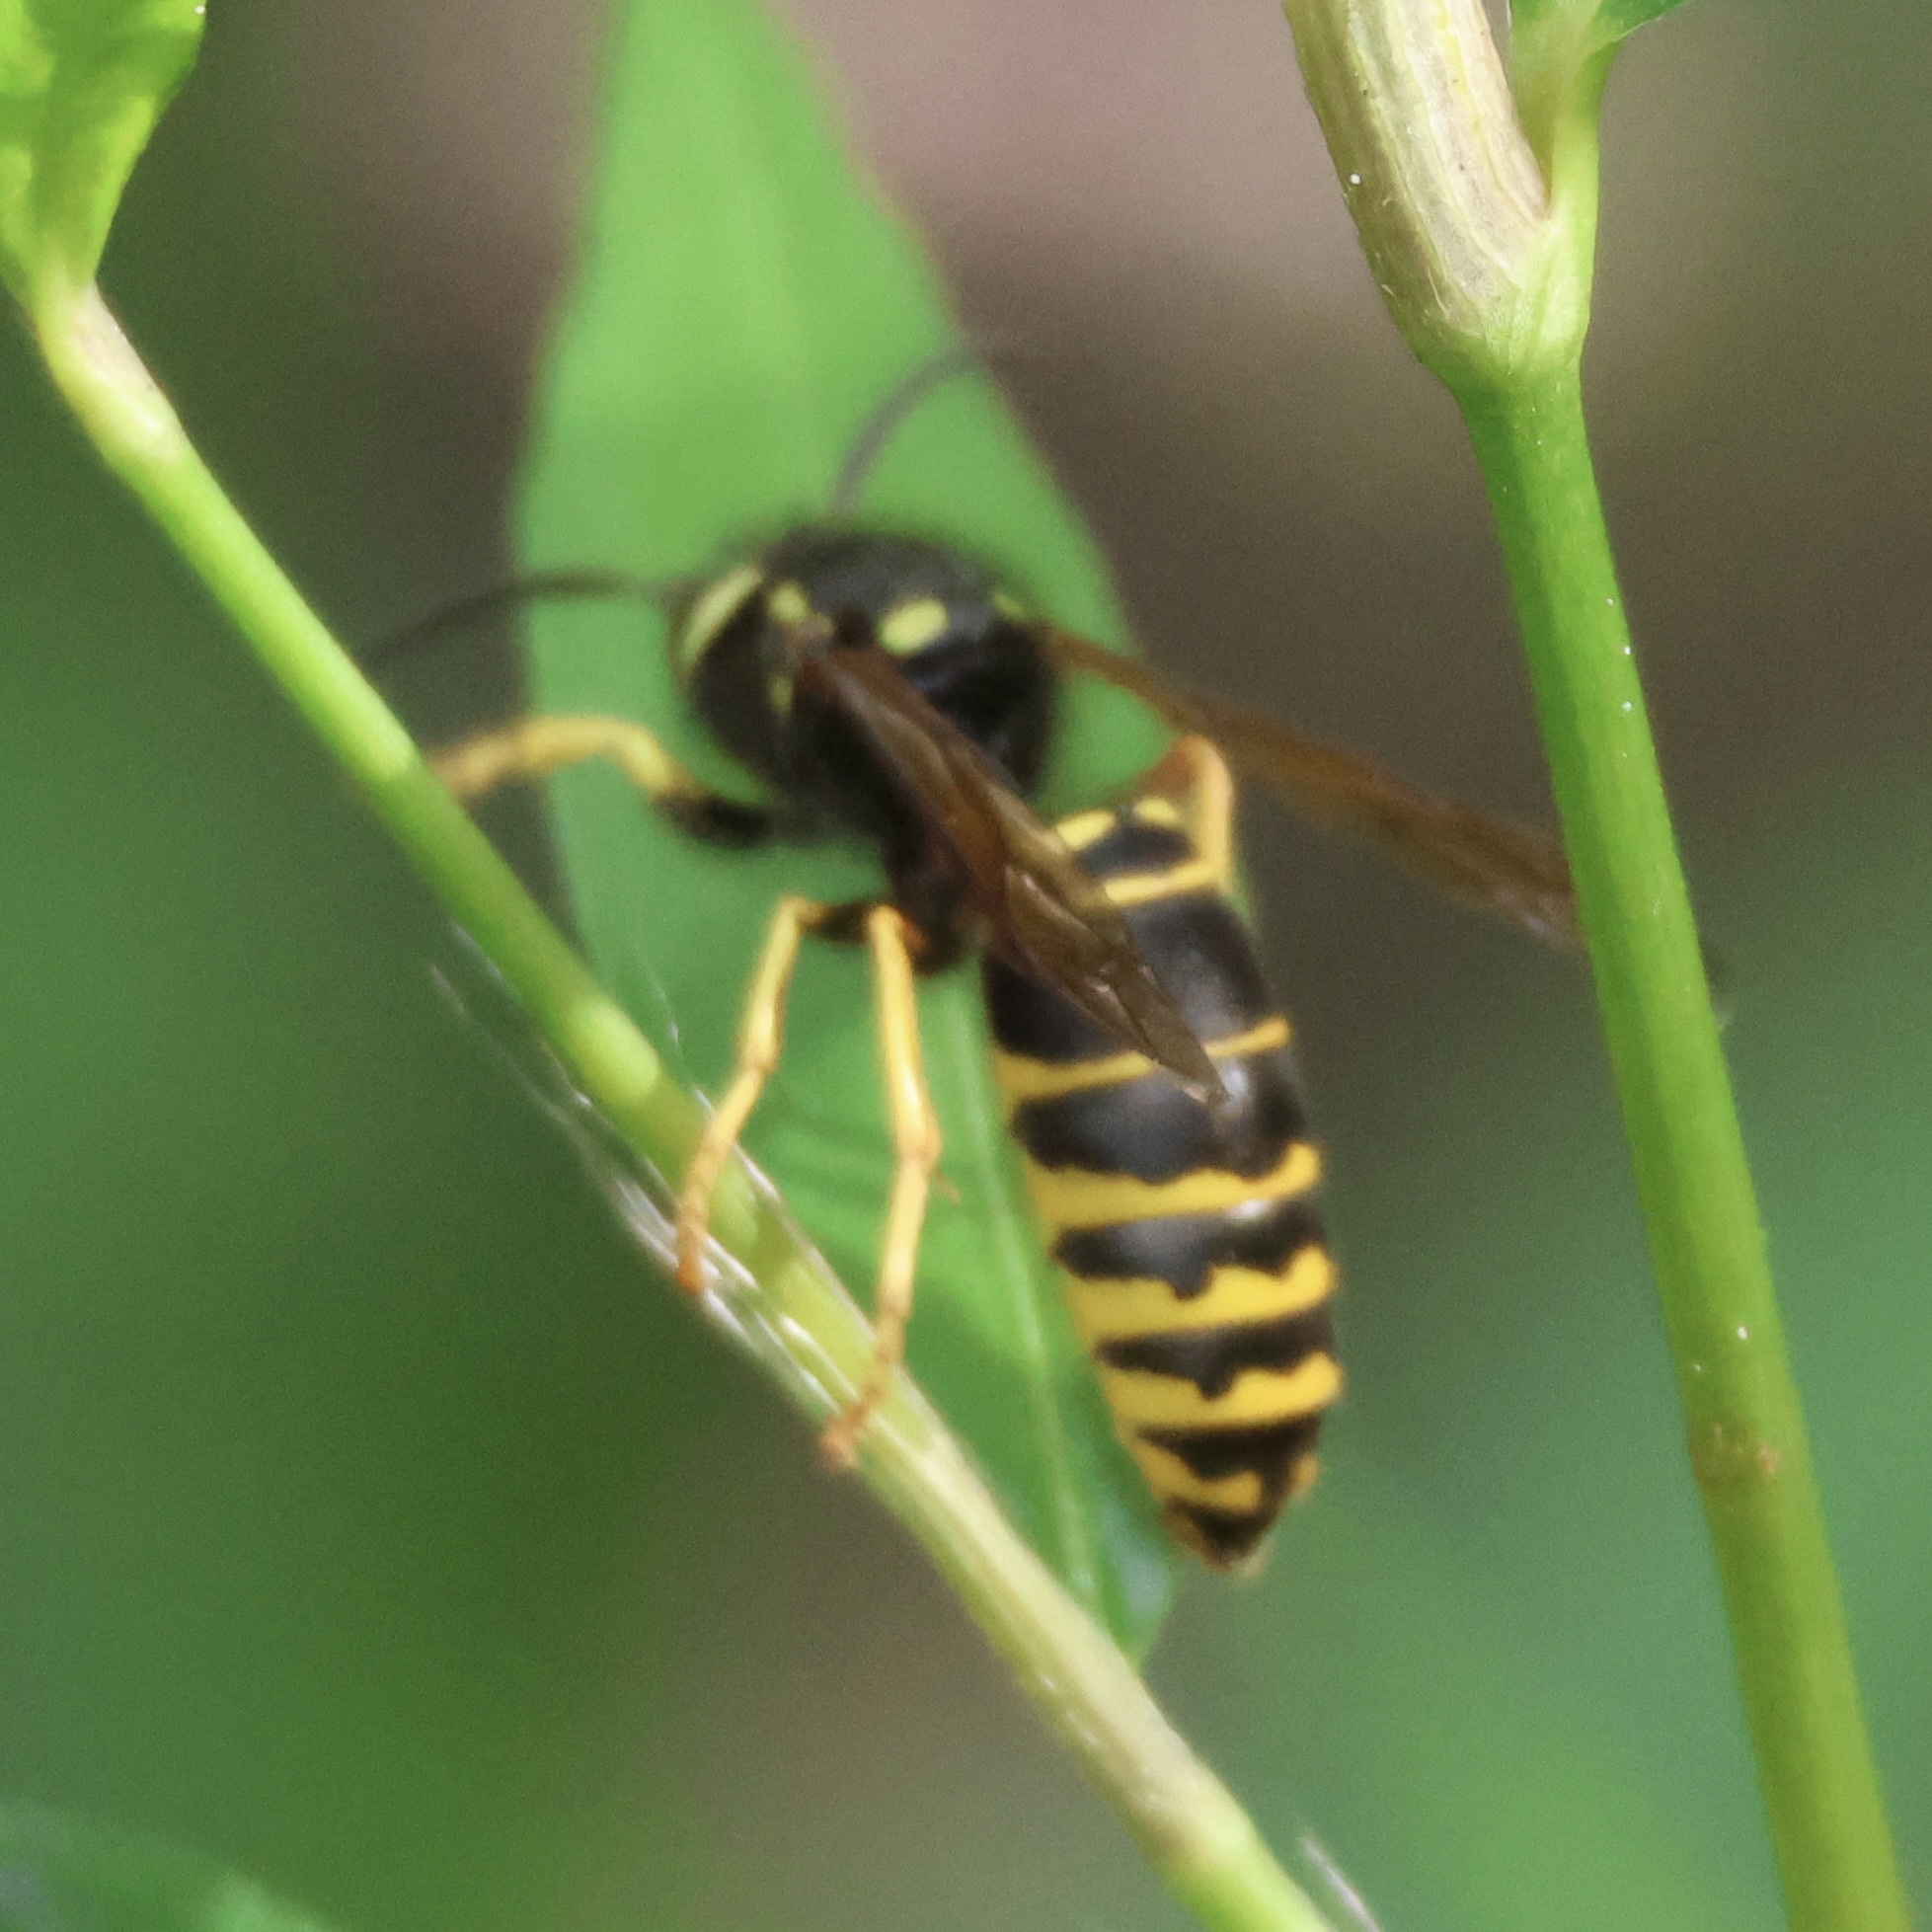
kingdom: Animalia
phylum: Arthropoda
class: Insecta
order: Hymenoptera
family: Vespidae
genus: Vespula
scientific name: Vespula vidua
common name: Widow yellowjacket
